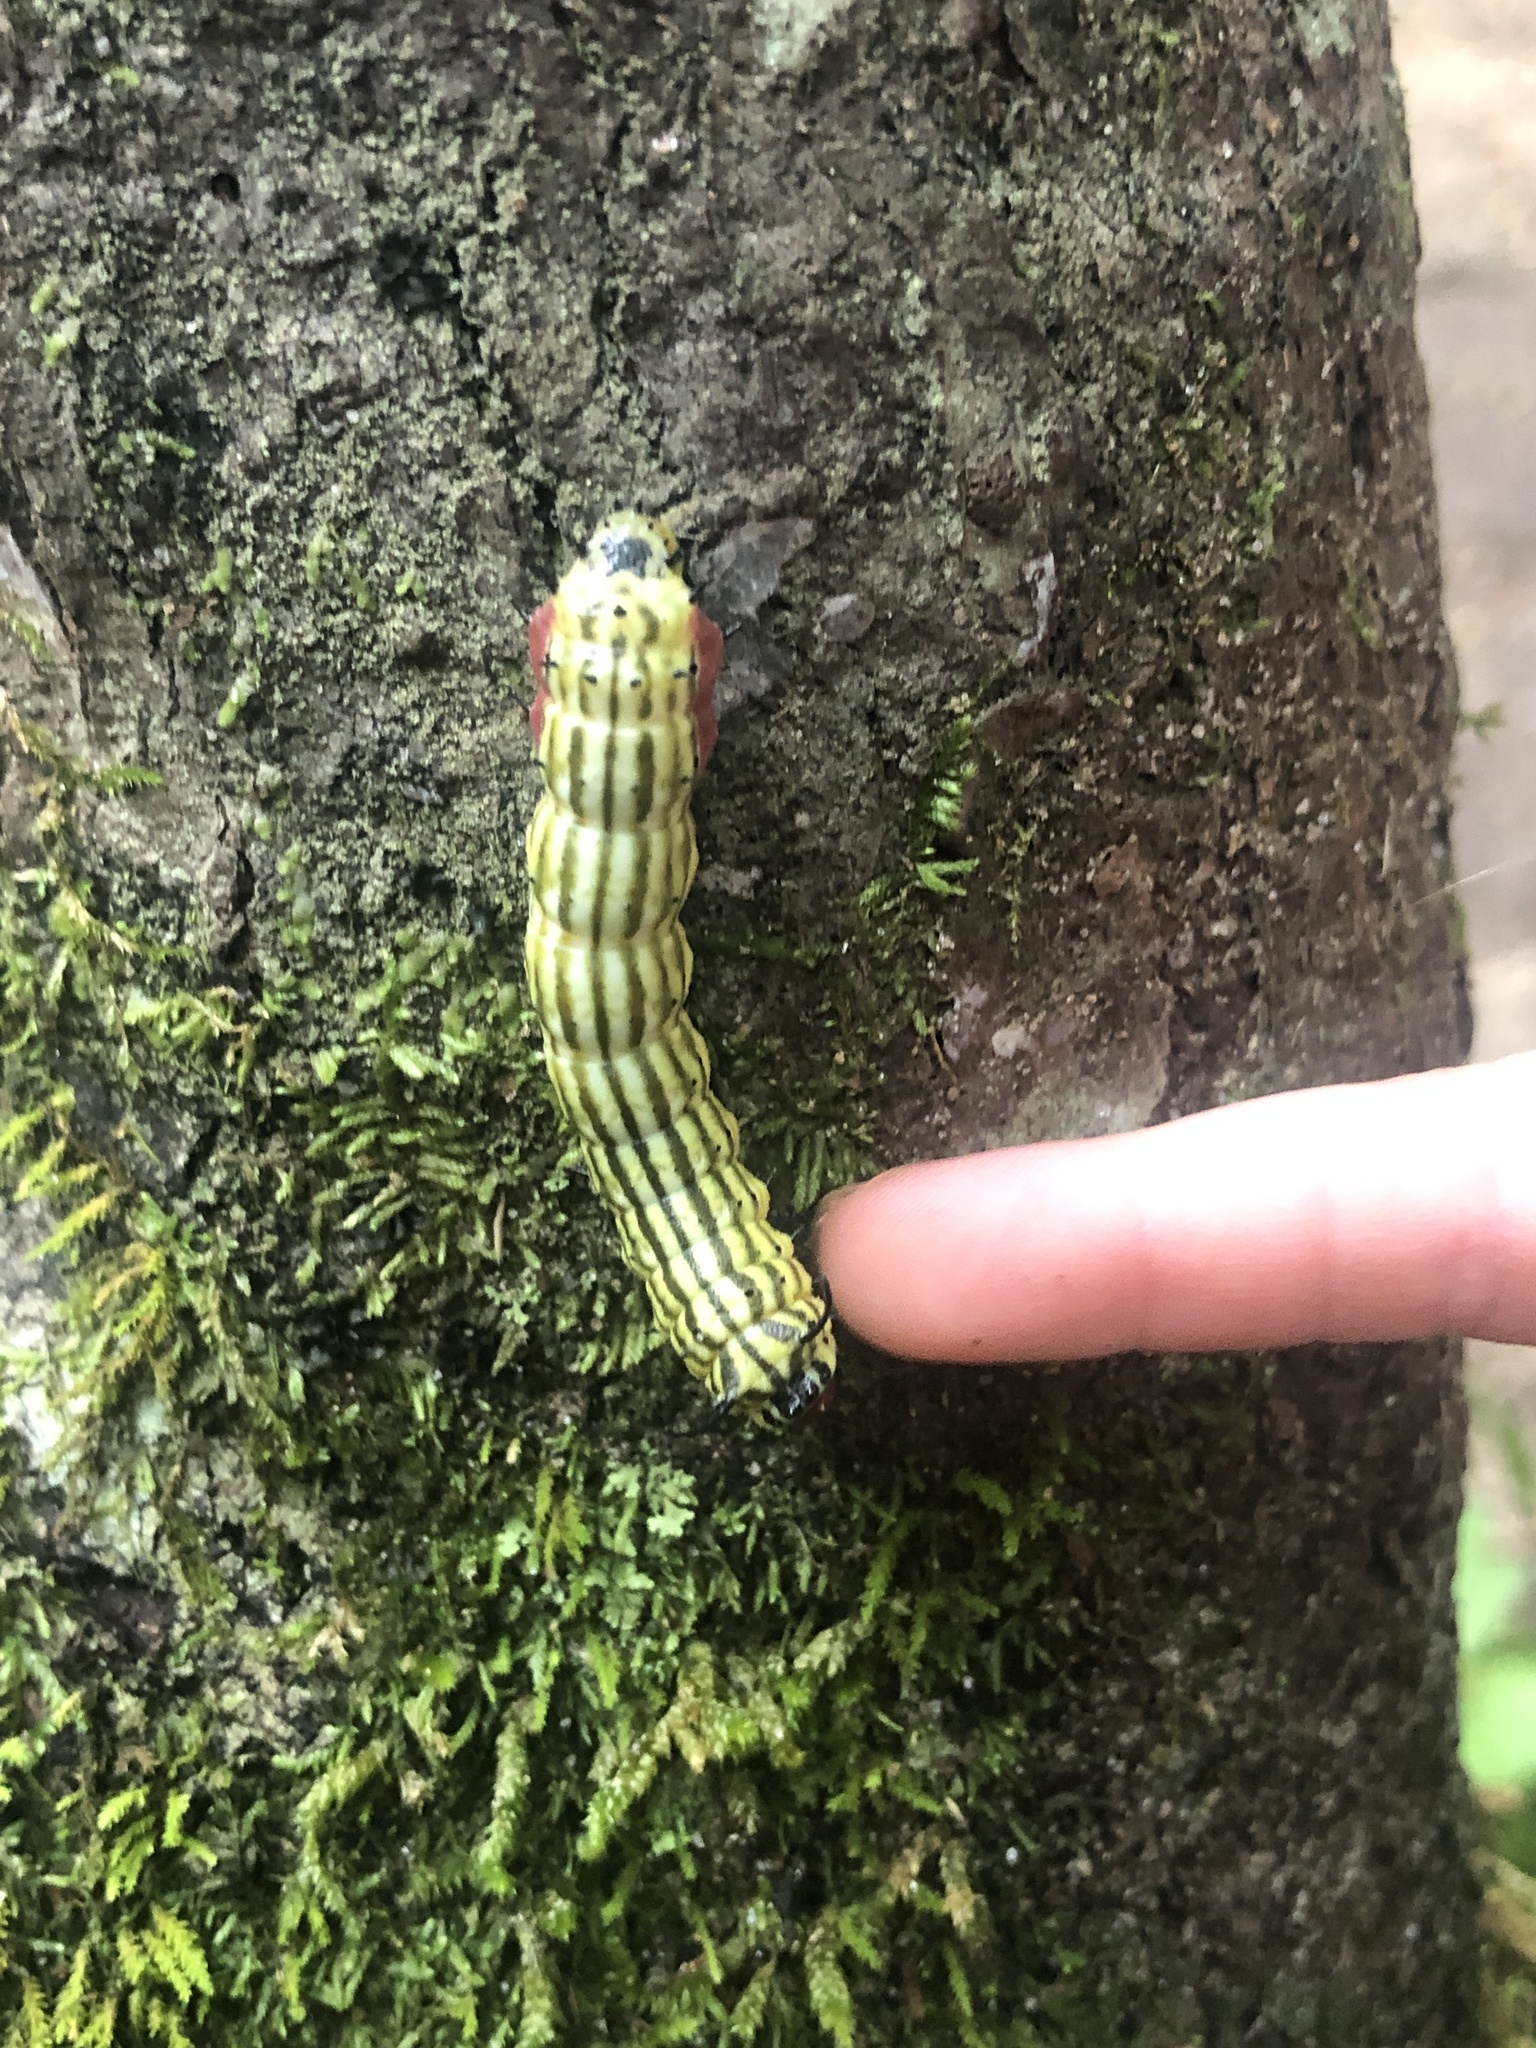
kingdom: Animalia
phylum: Arthropoda
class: Insecta
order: Lepidoptera
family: Saturniidae
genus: Dryocampa
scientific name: Dryocampa rubicunda
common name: Rosy maple moth
